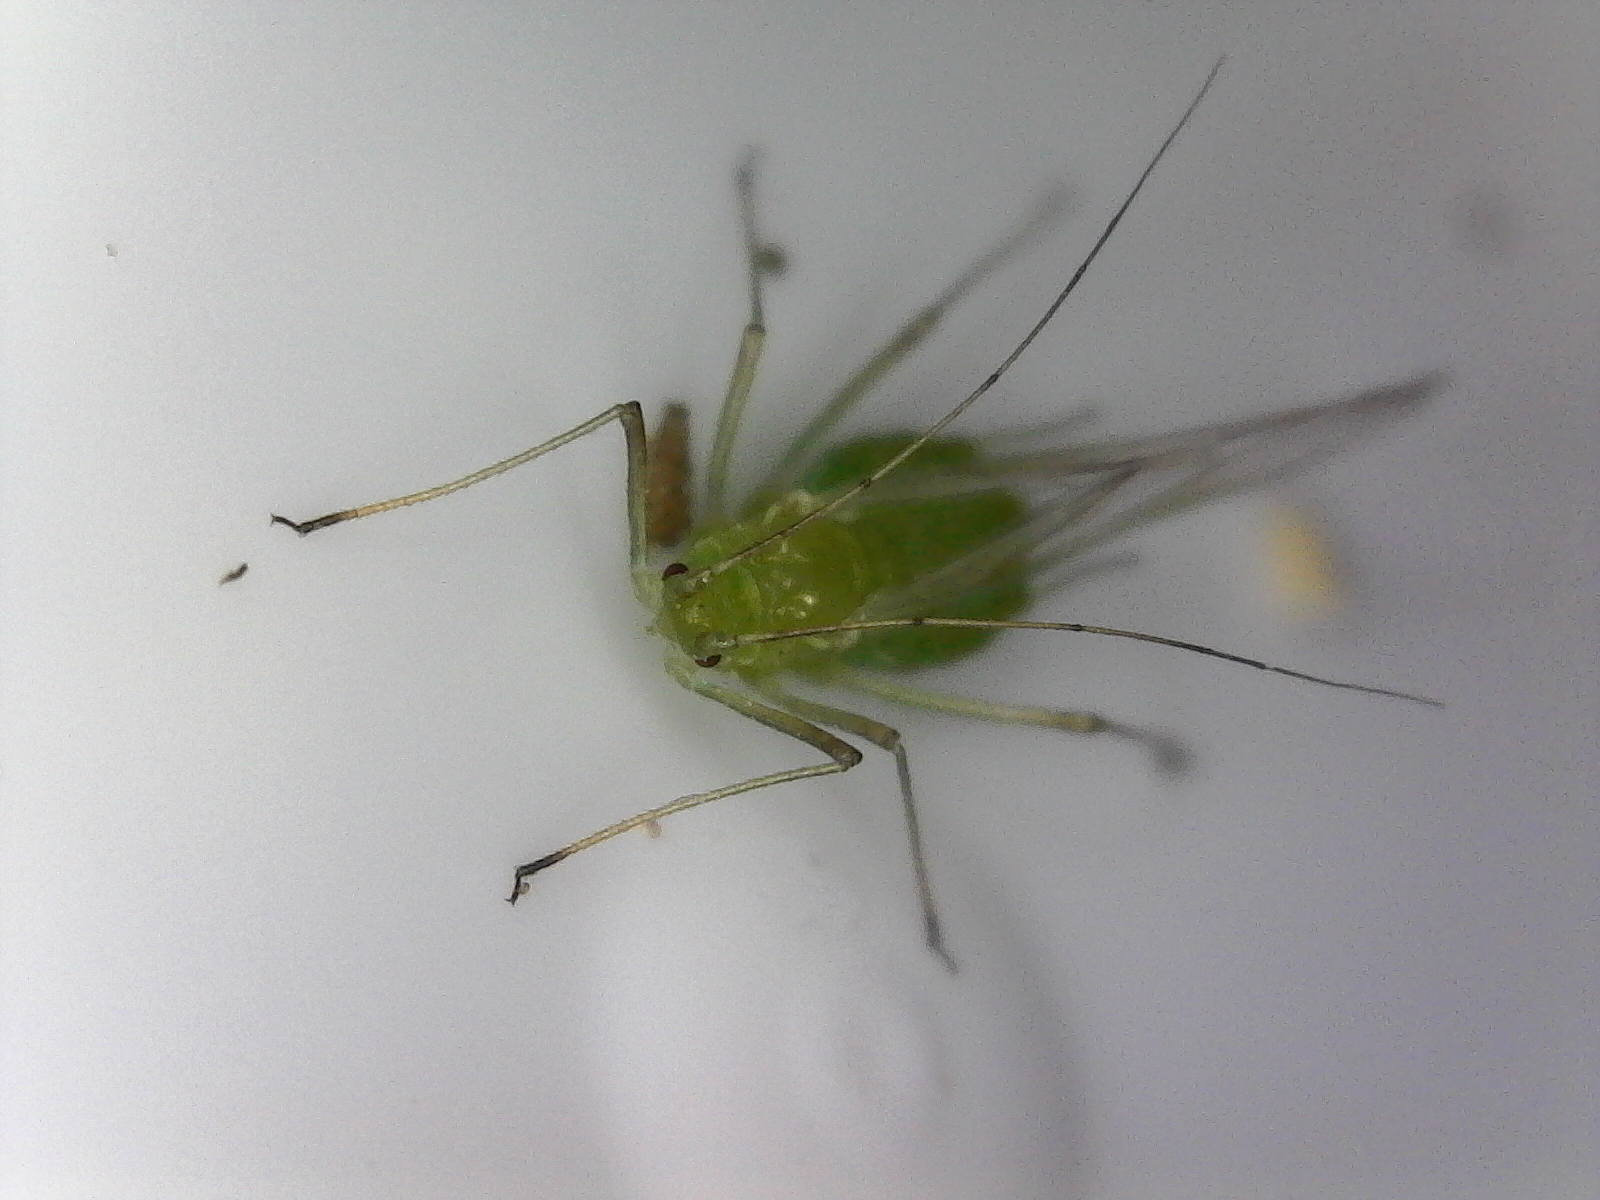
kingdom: Animalia
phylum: Arthropoda
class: Insecta
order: Hemiptera
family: Aphididae
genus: Acyrthosiphon
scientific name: Acyrthosiphon pisum
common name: Pea aphid
